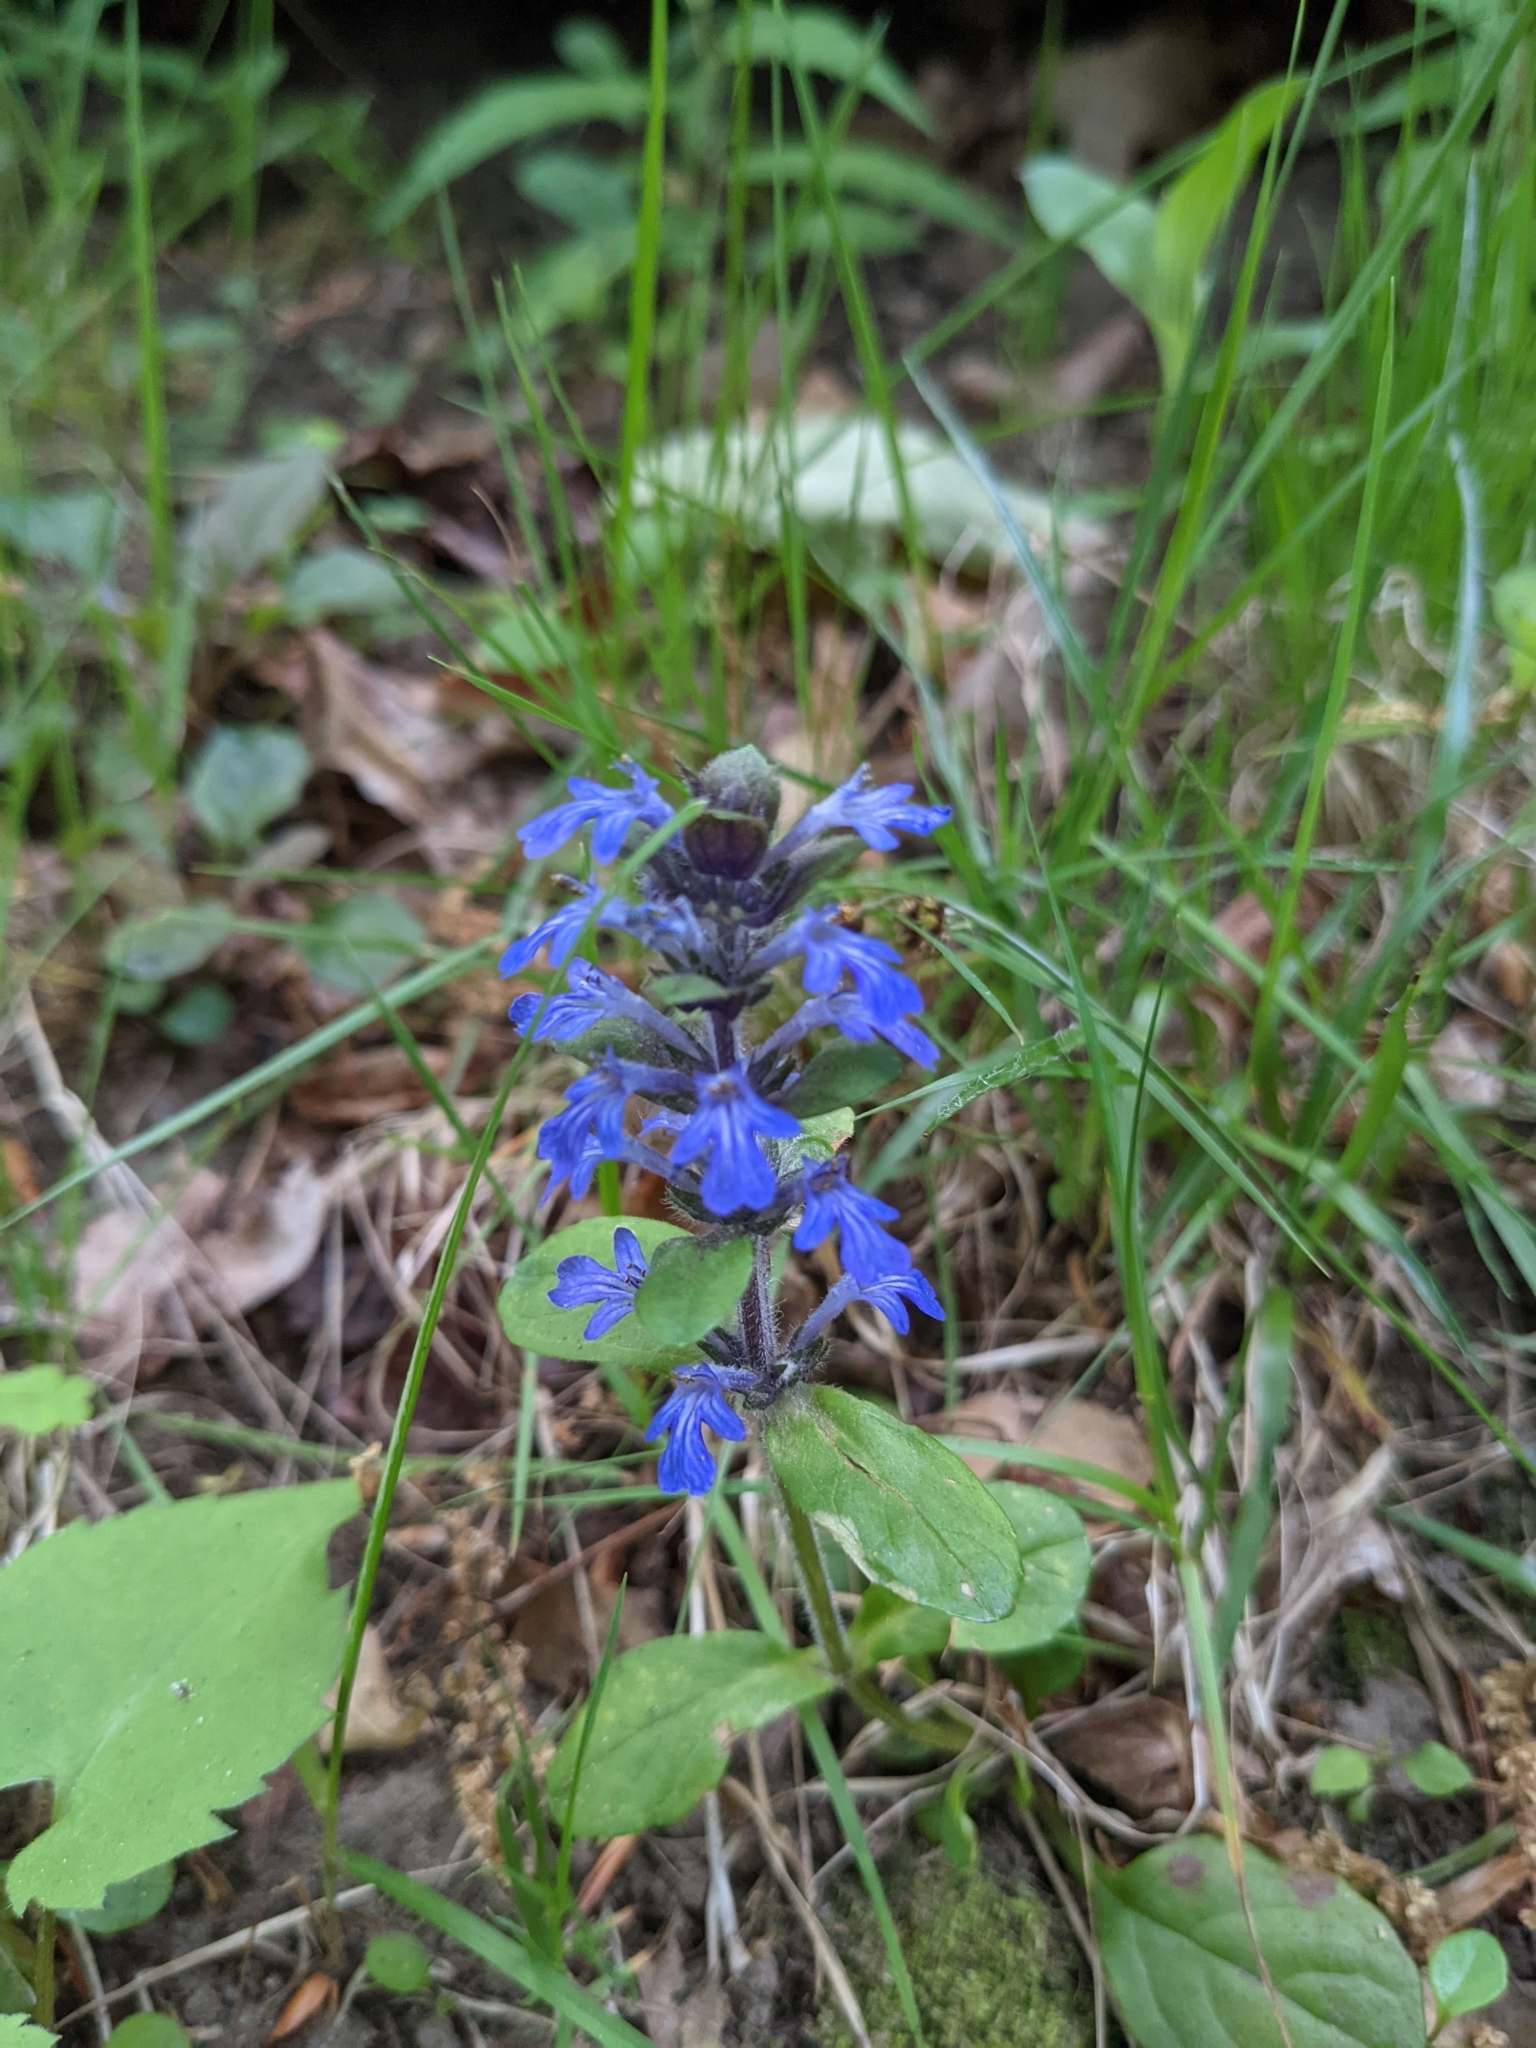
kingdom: Plantae
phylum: Tracheophyta
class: Magnoliopsida
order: Lamiales
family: Lamiaceae
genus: Ajuga
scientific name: Ajuga reptans
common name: Bugle
